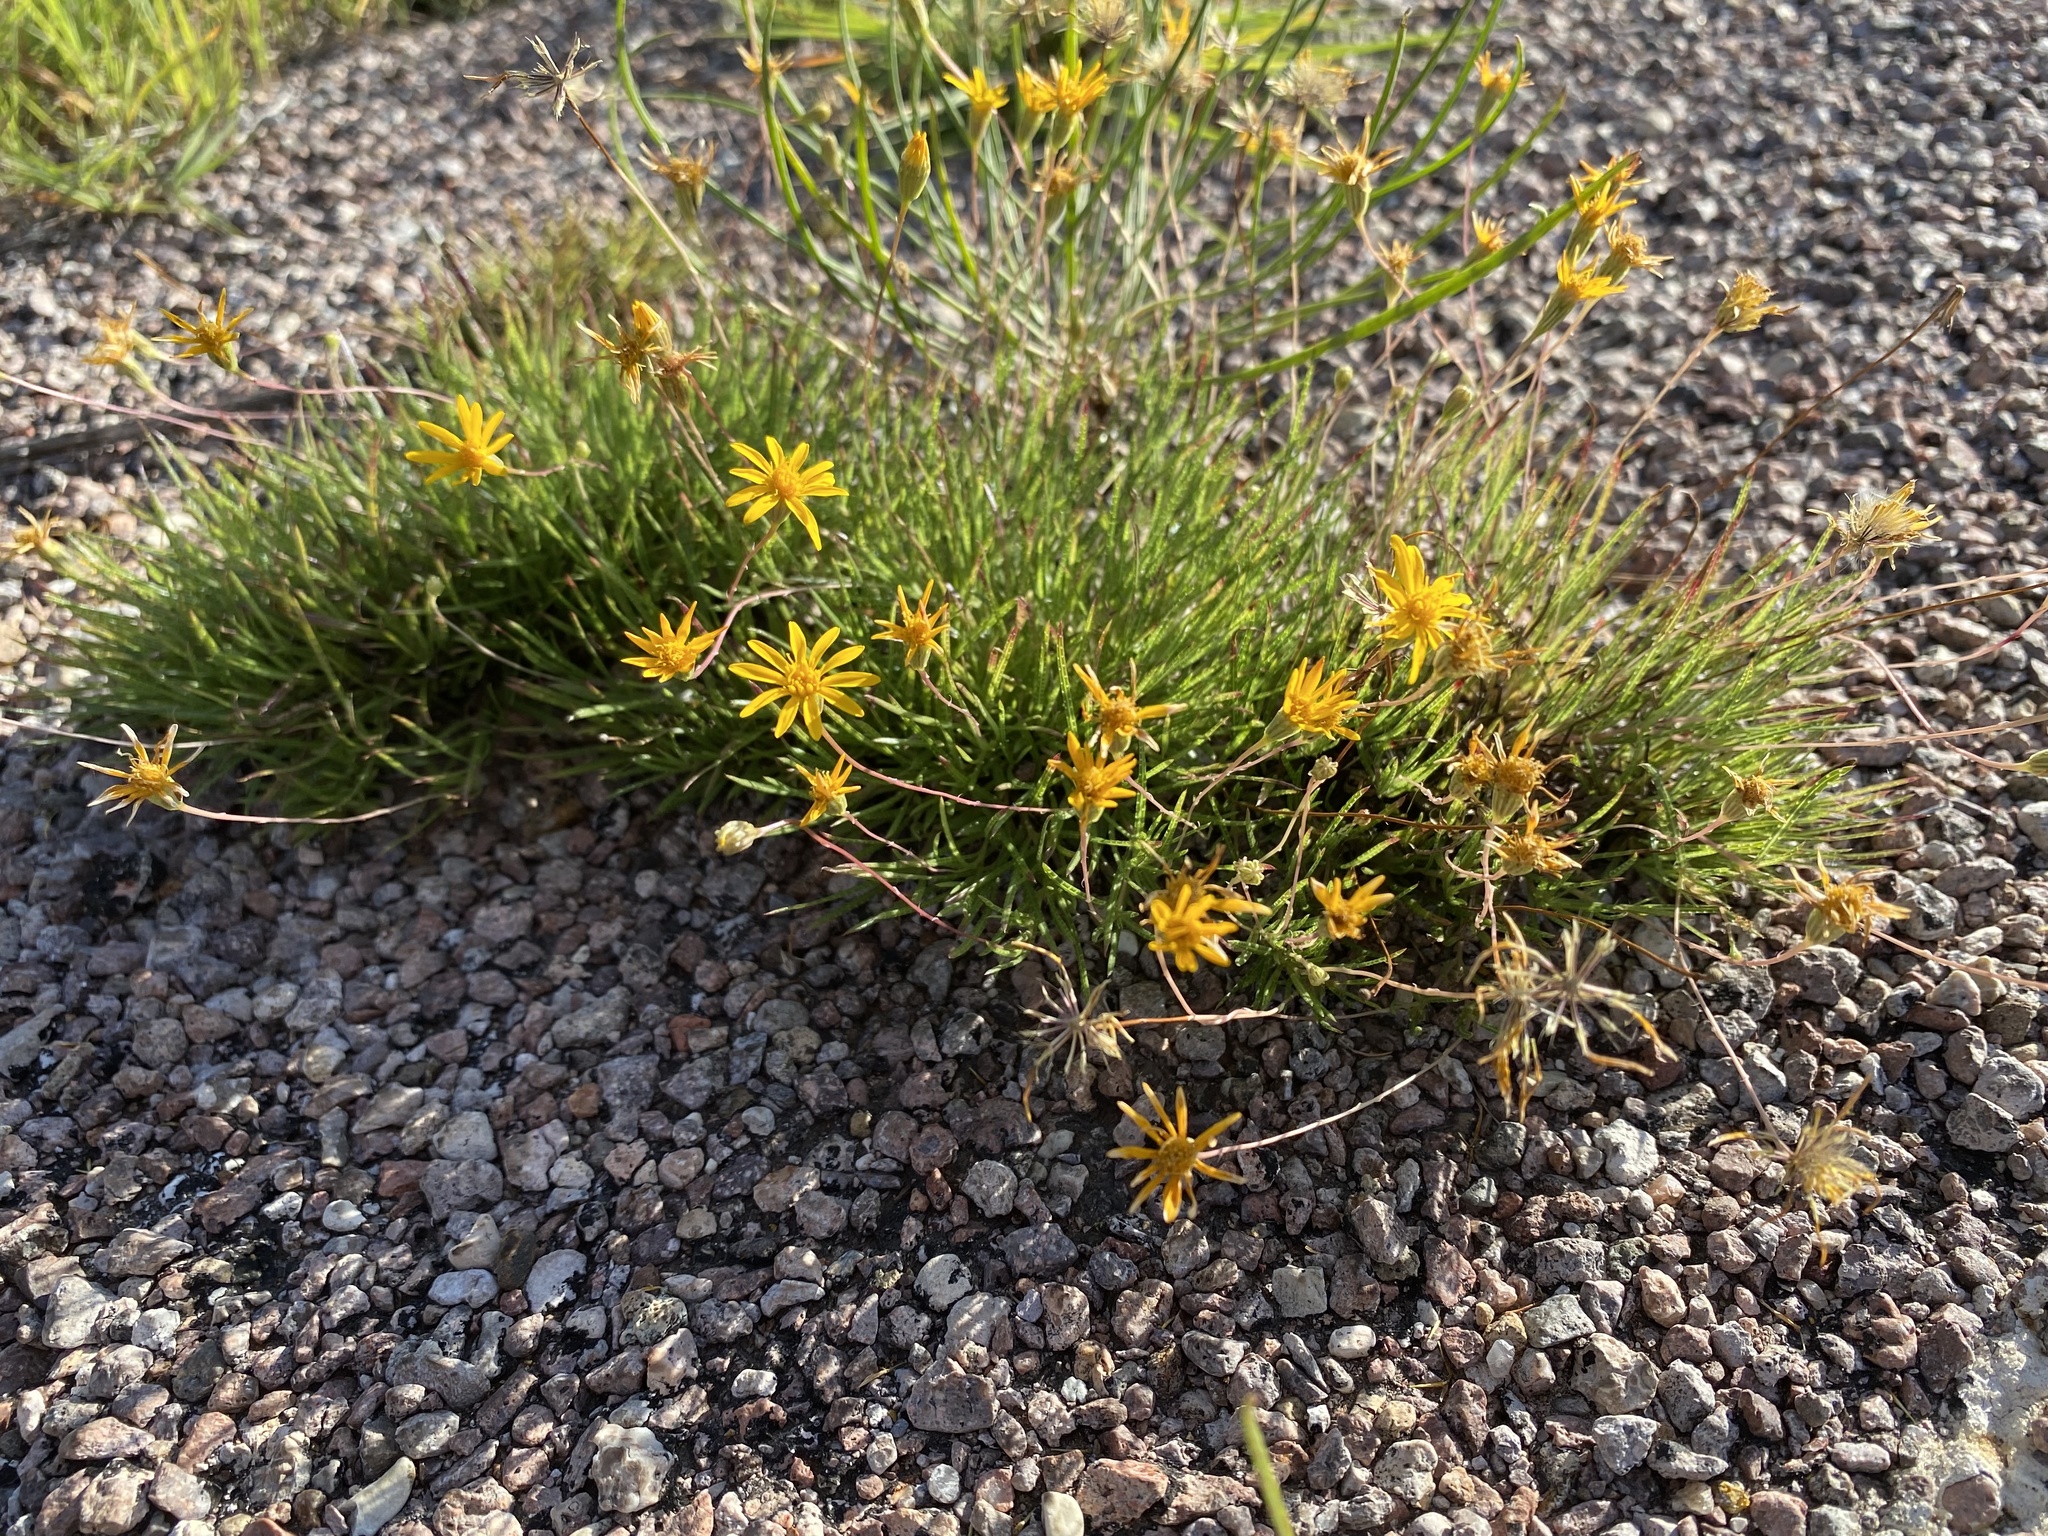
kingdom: Plantae
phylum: Tracheophyta
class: Magnoliopsida
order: Asterales
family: Asteraceae
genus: Pectis
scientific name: Pectis longipes
